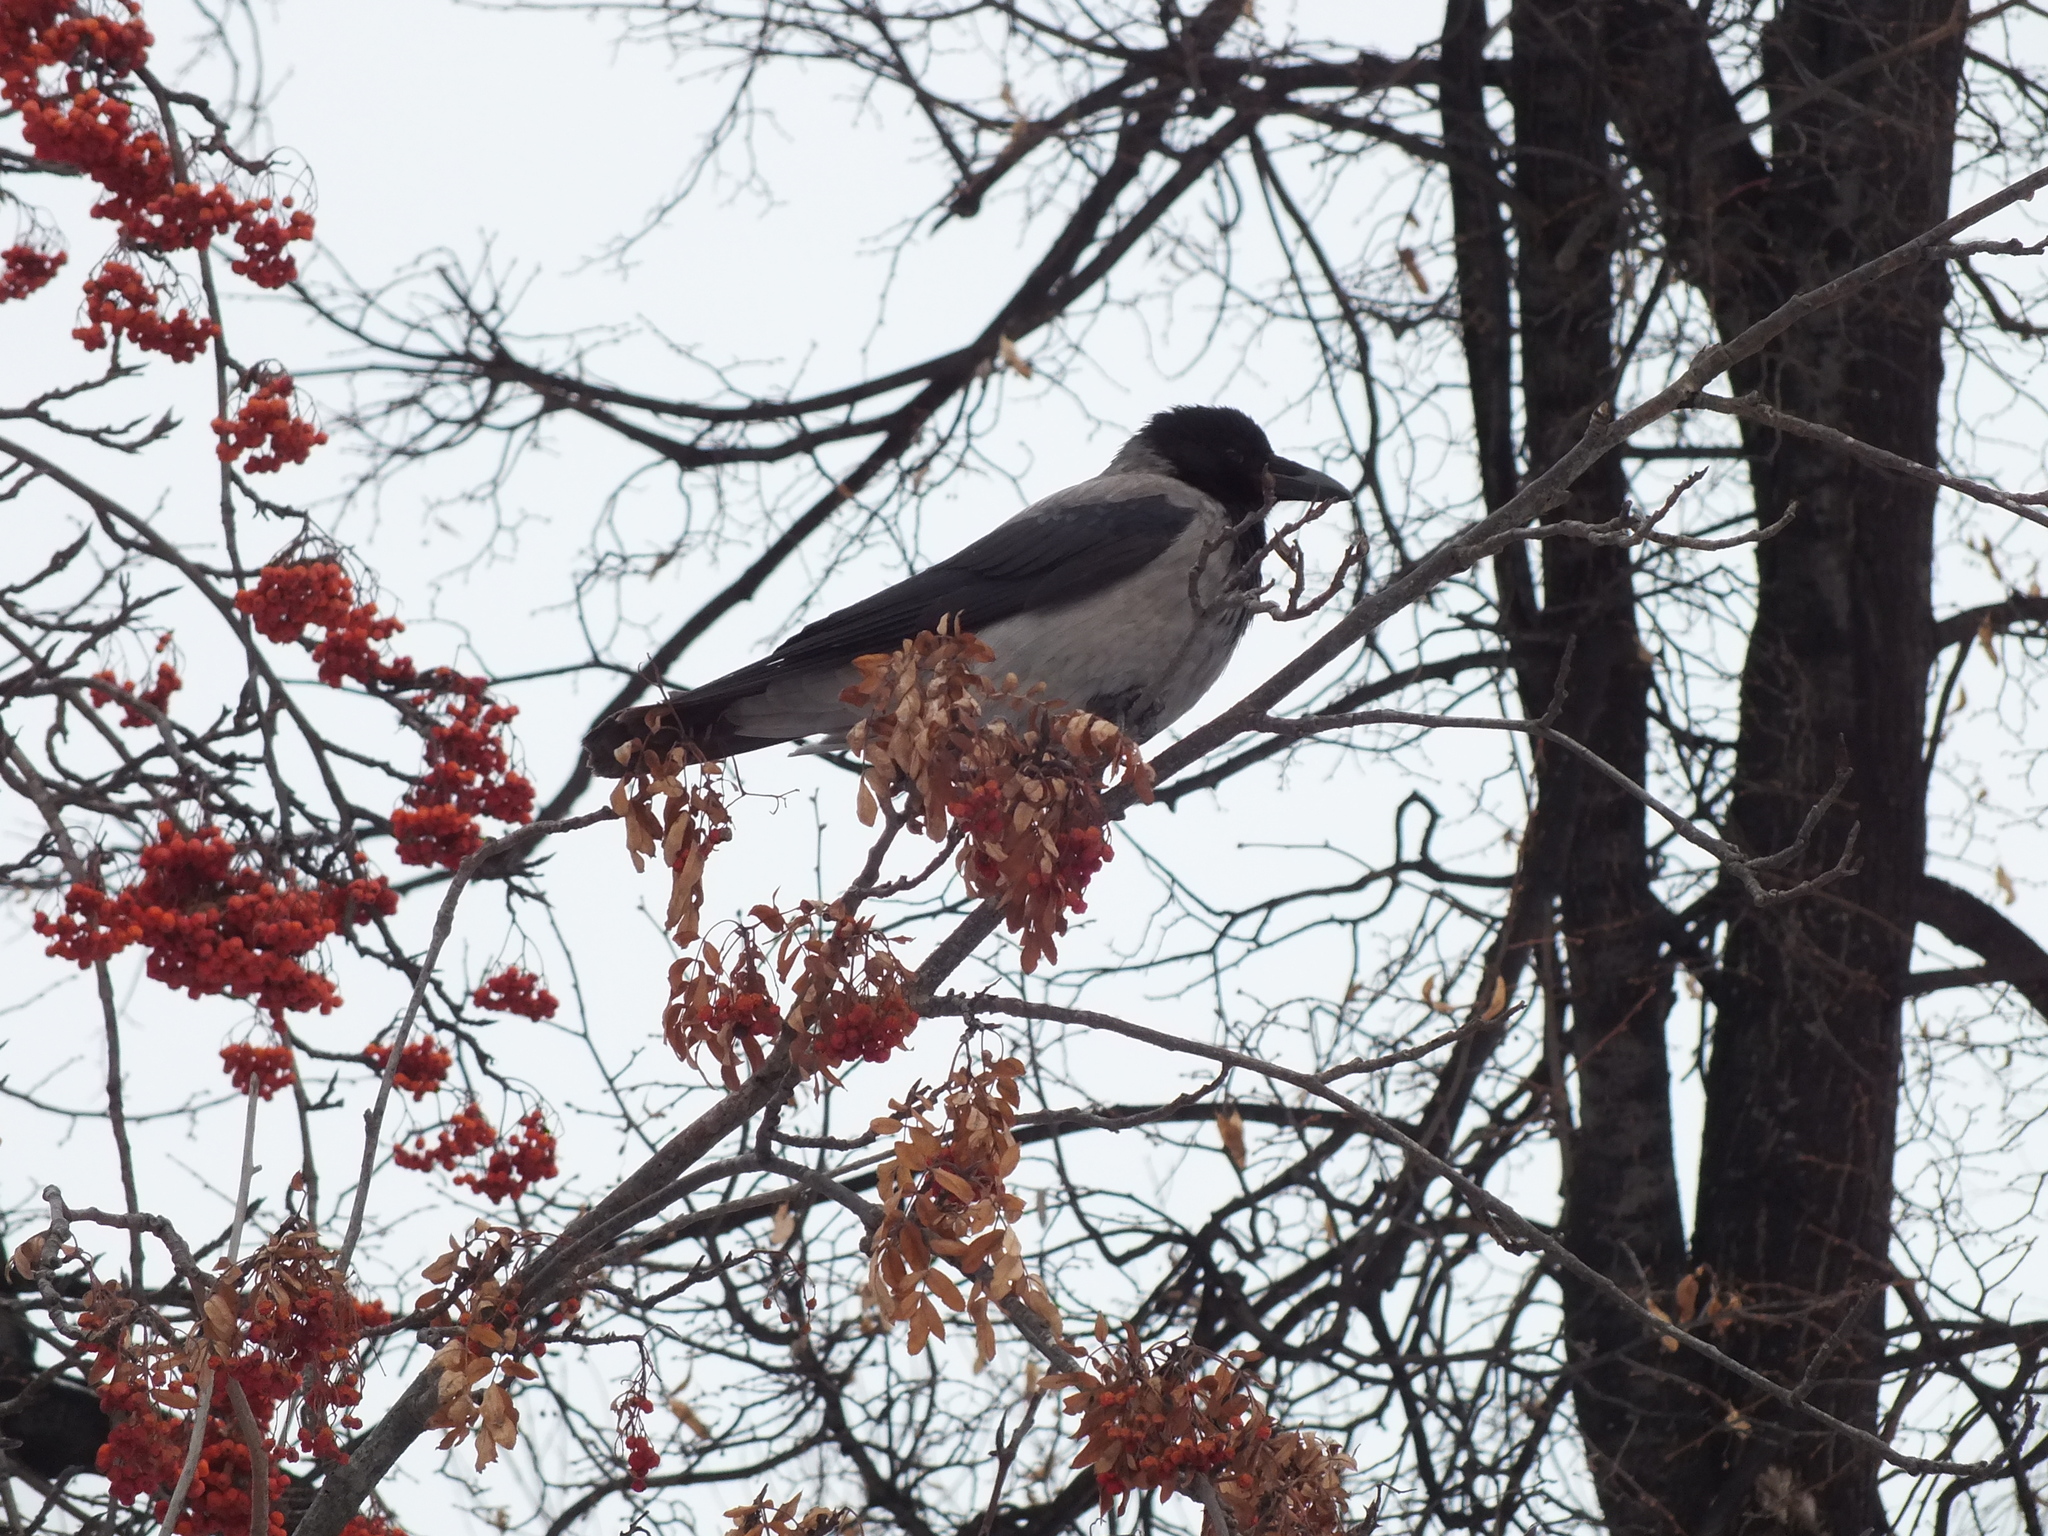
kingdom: Animalia
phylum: Chordata
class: Aves
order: Passeriformes
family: Corvidae
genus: Corvus
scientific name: Corvus cornix
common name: Hooded crow
